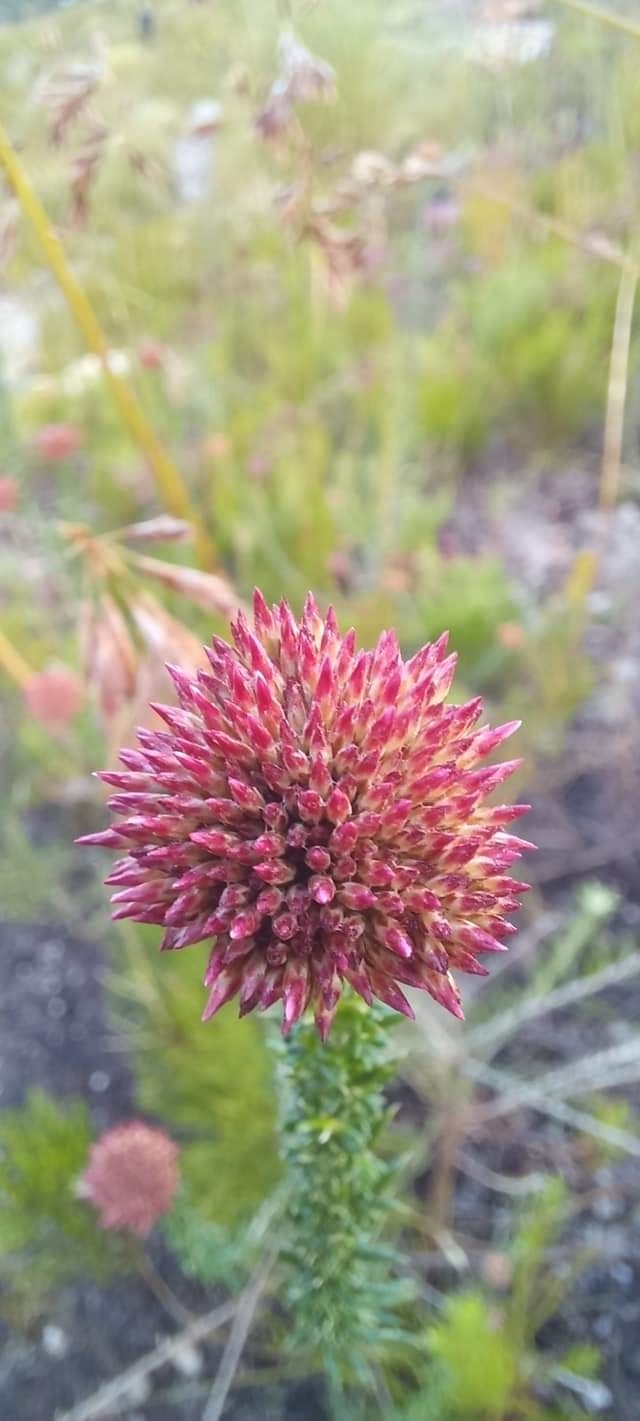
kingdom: Plantae
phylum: Tracheophyta
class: Magnoliopsida
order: Asterales
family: Asteraceae
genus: Metalasia
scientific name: Metalasia densa
